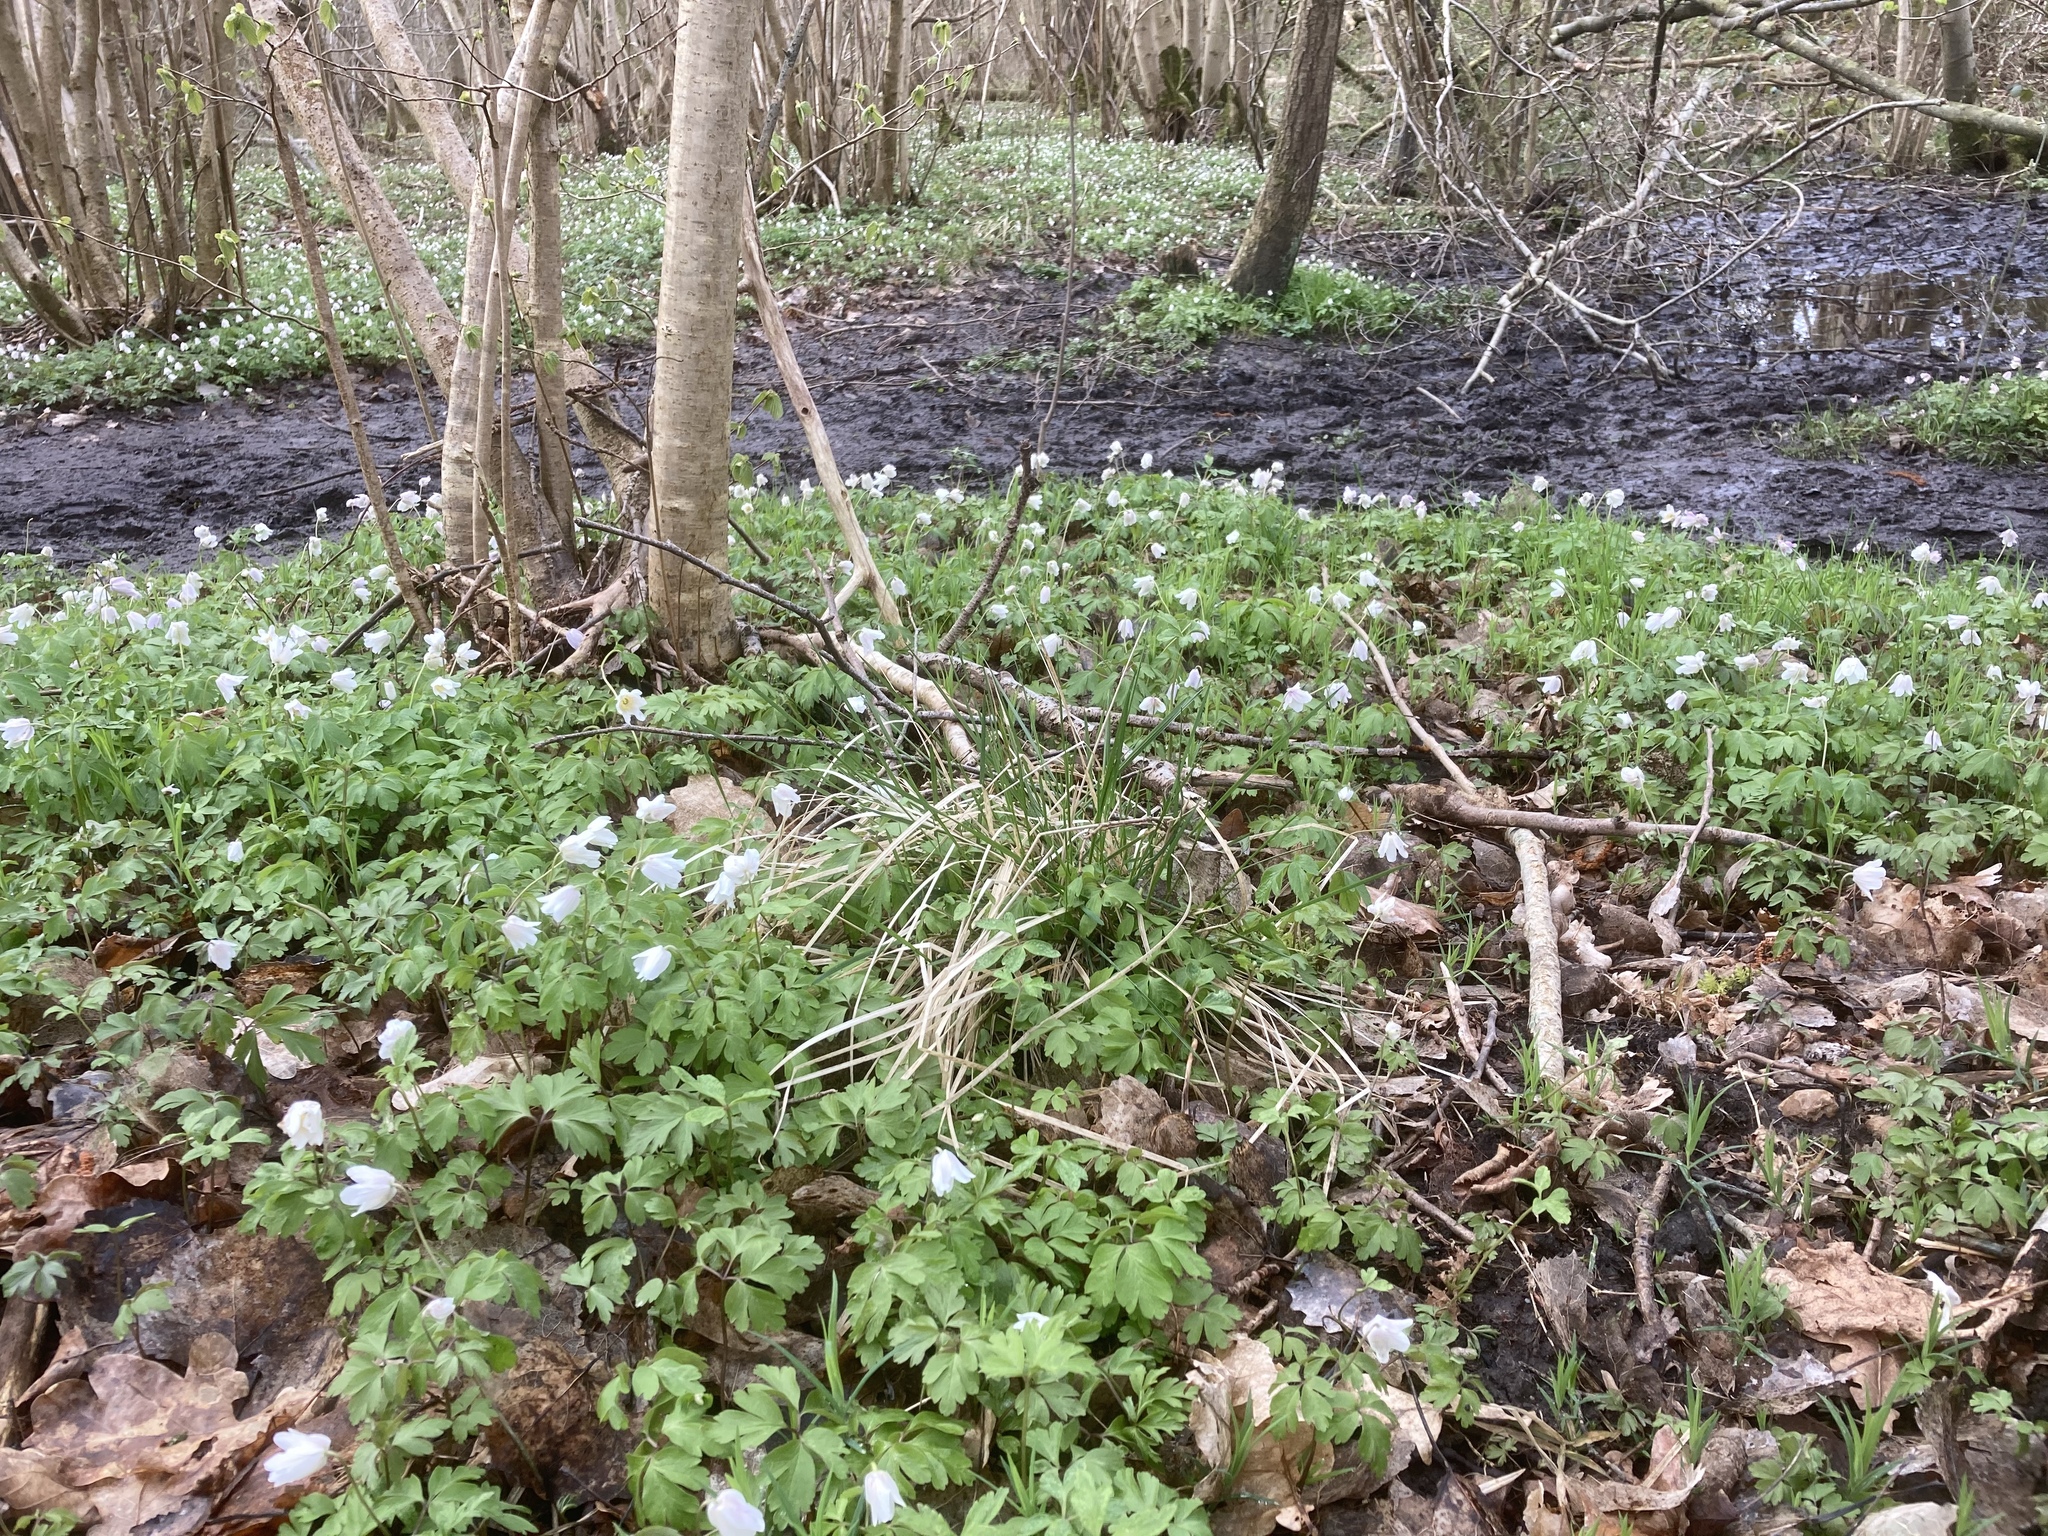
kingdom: Plantae
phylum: Tracheophyta
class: Magnoliopsida
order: Ranunculales
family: Ranunculaceae
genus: Anemone
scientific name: Anemone nemorosa
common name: Wood anemone
